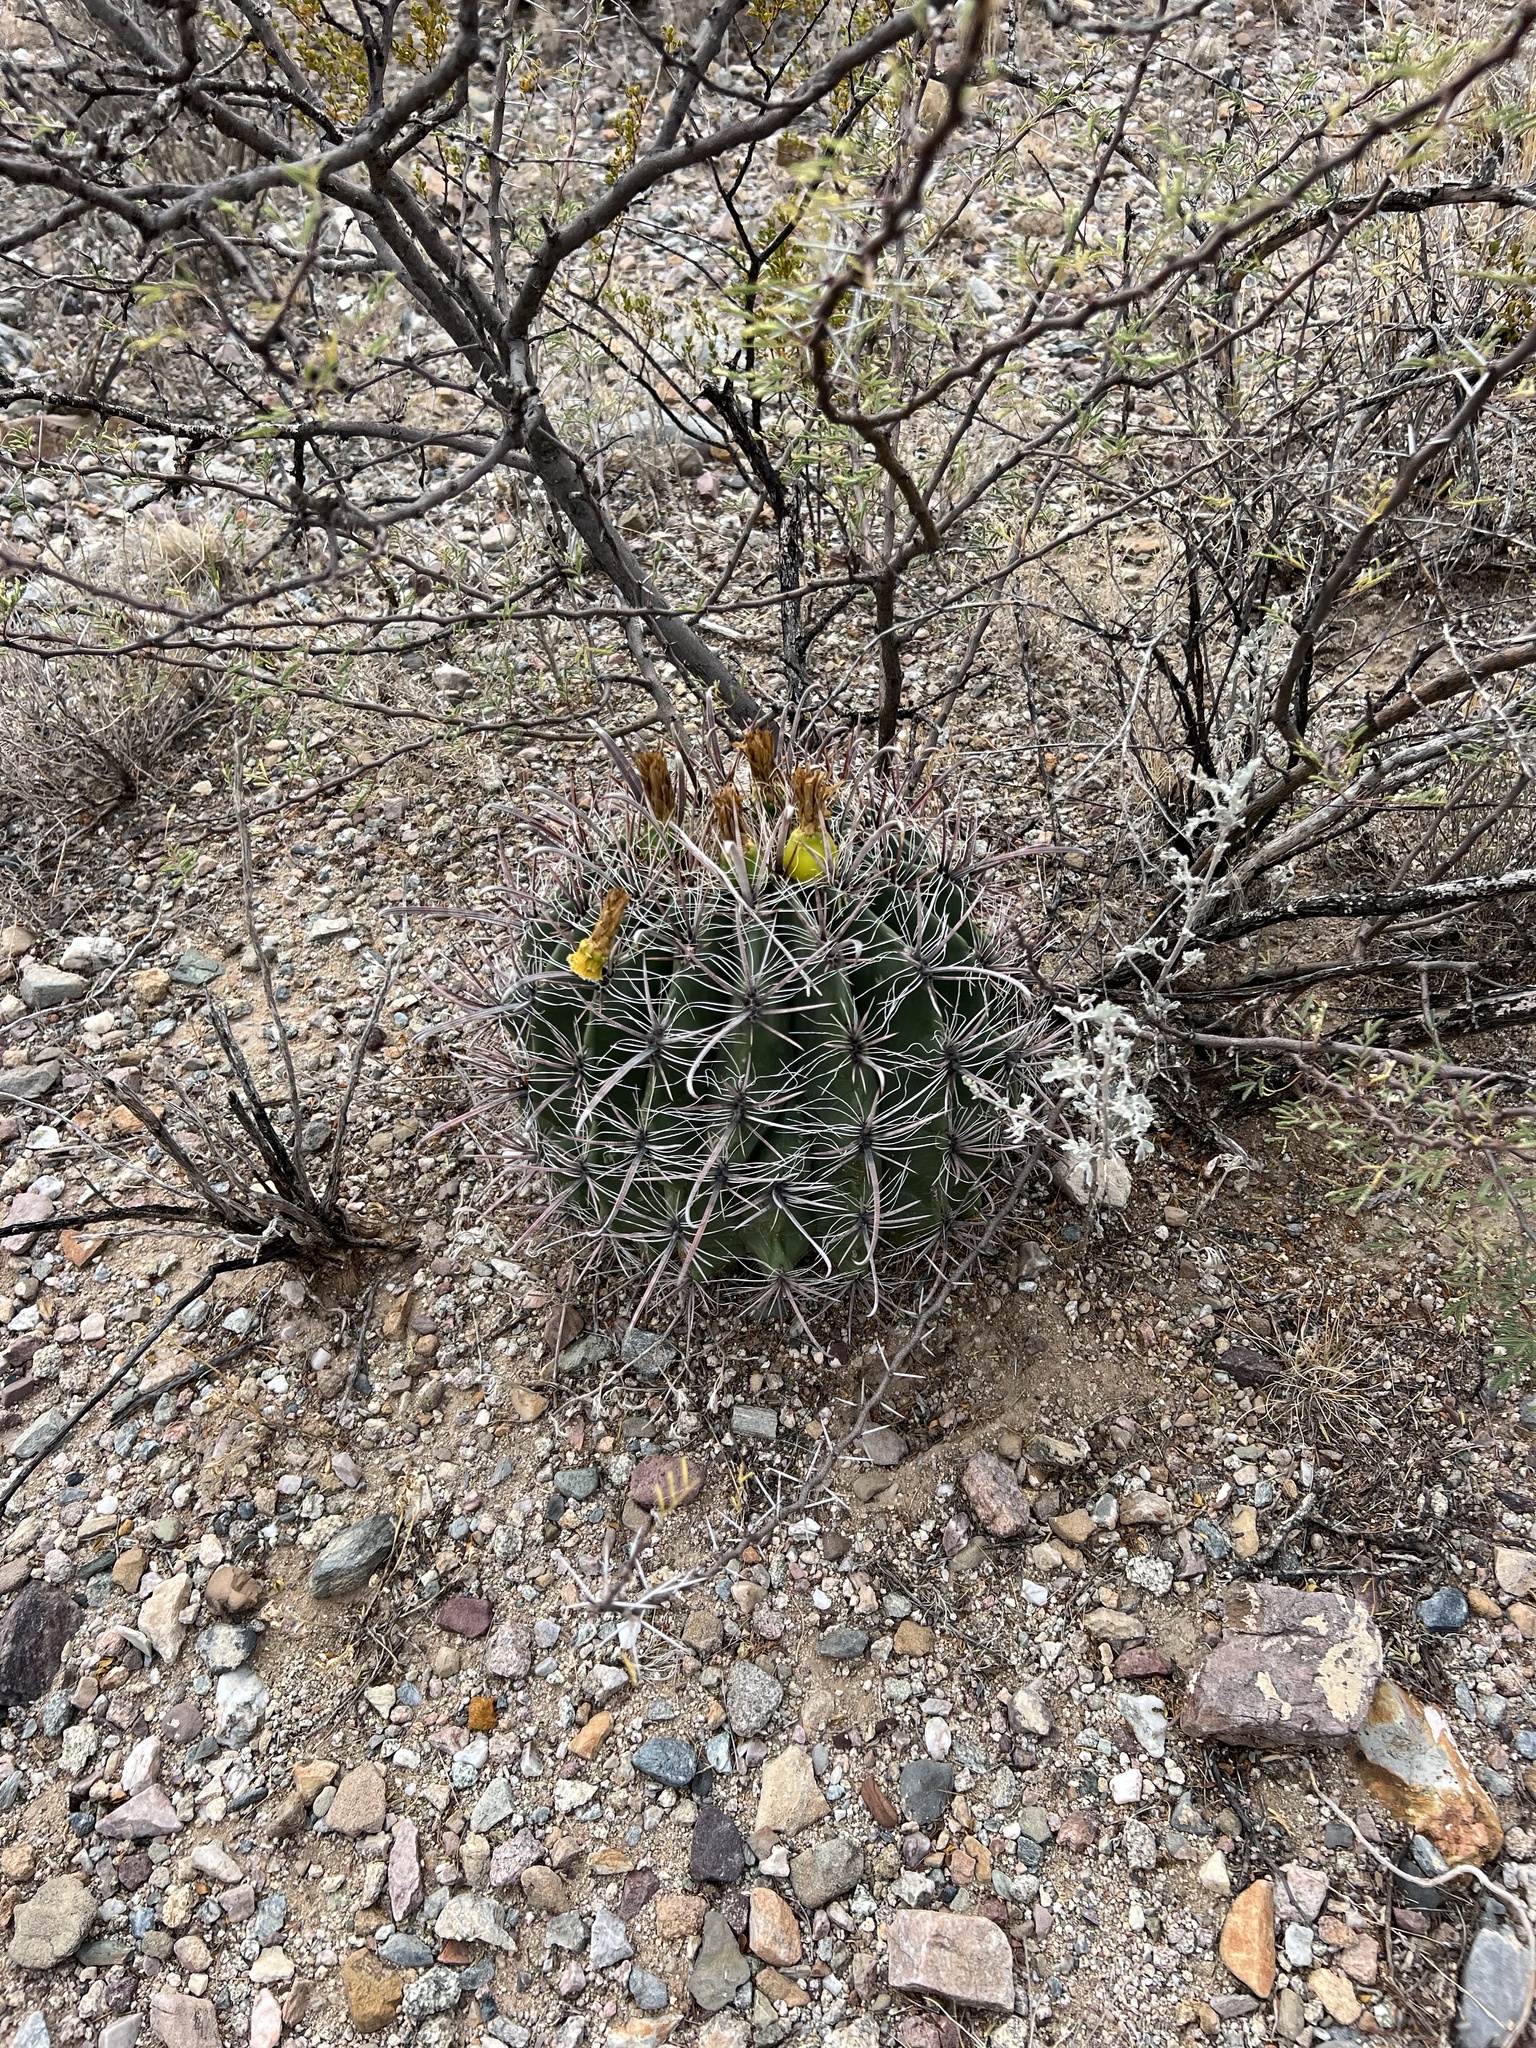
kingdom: Plantae
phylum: Tracheophyta
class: Magnoliopsida
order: Caryophyllales
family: Cactaceae
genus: Ferocactus
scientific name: Ferocactus wislizeni
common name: Candy barrel cactus
